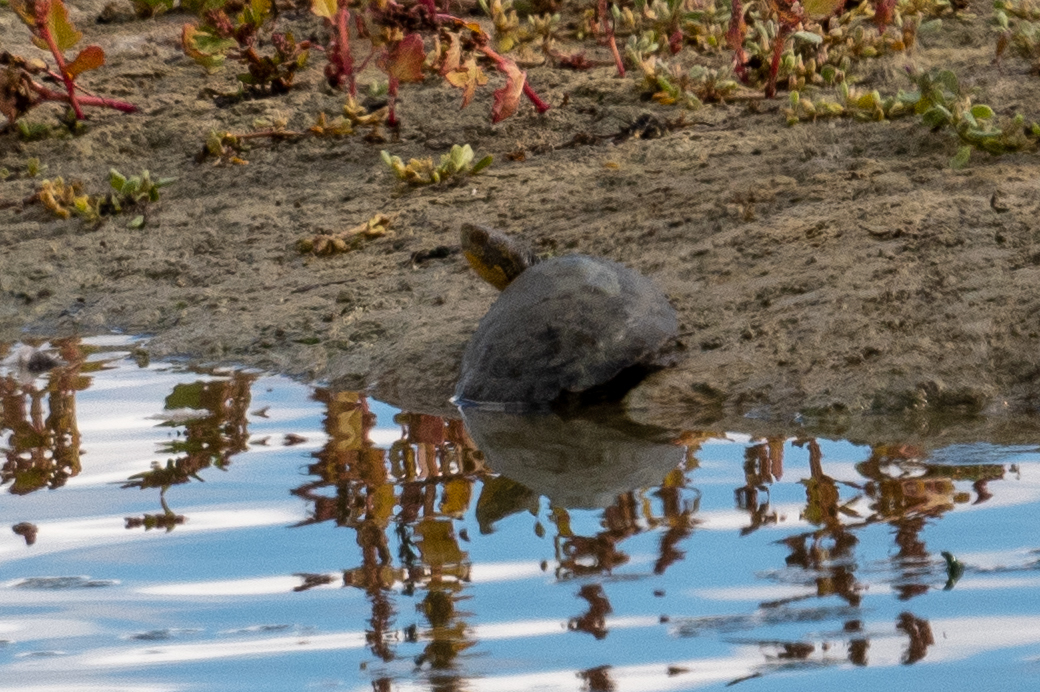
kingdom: Animalia
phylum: Chordata
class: Testudines
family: Emydidae
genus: Actinemys
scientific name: Actinemys marmorata
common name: Western pond turtle
